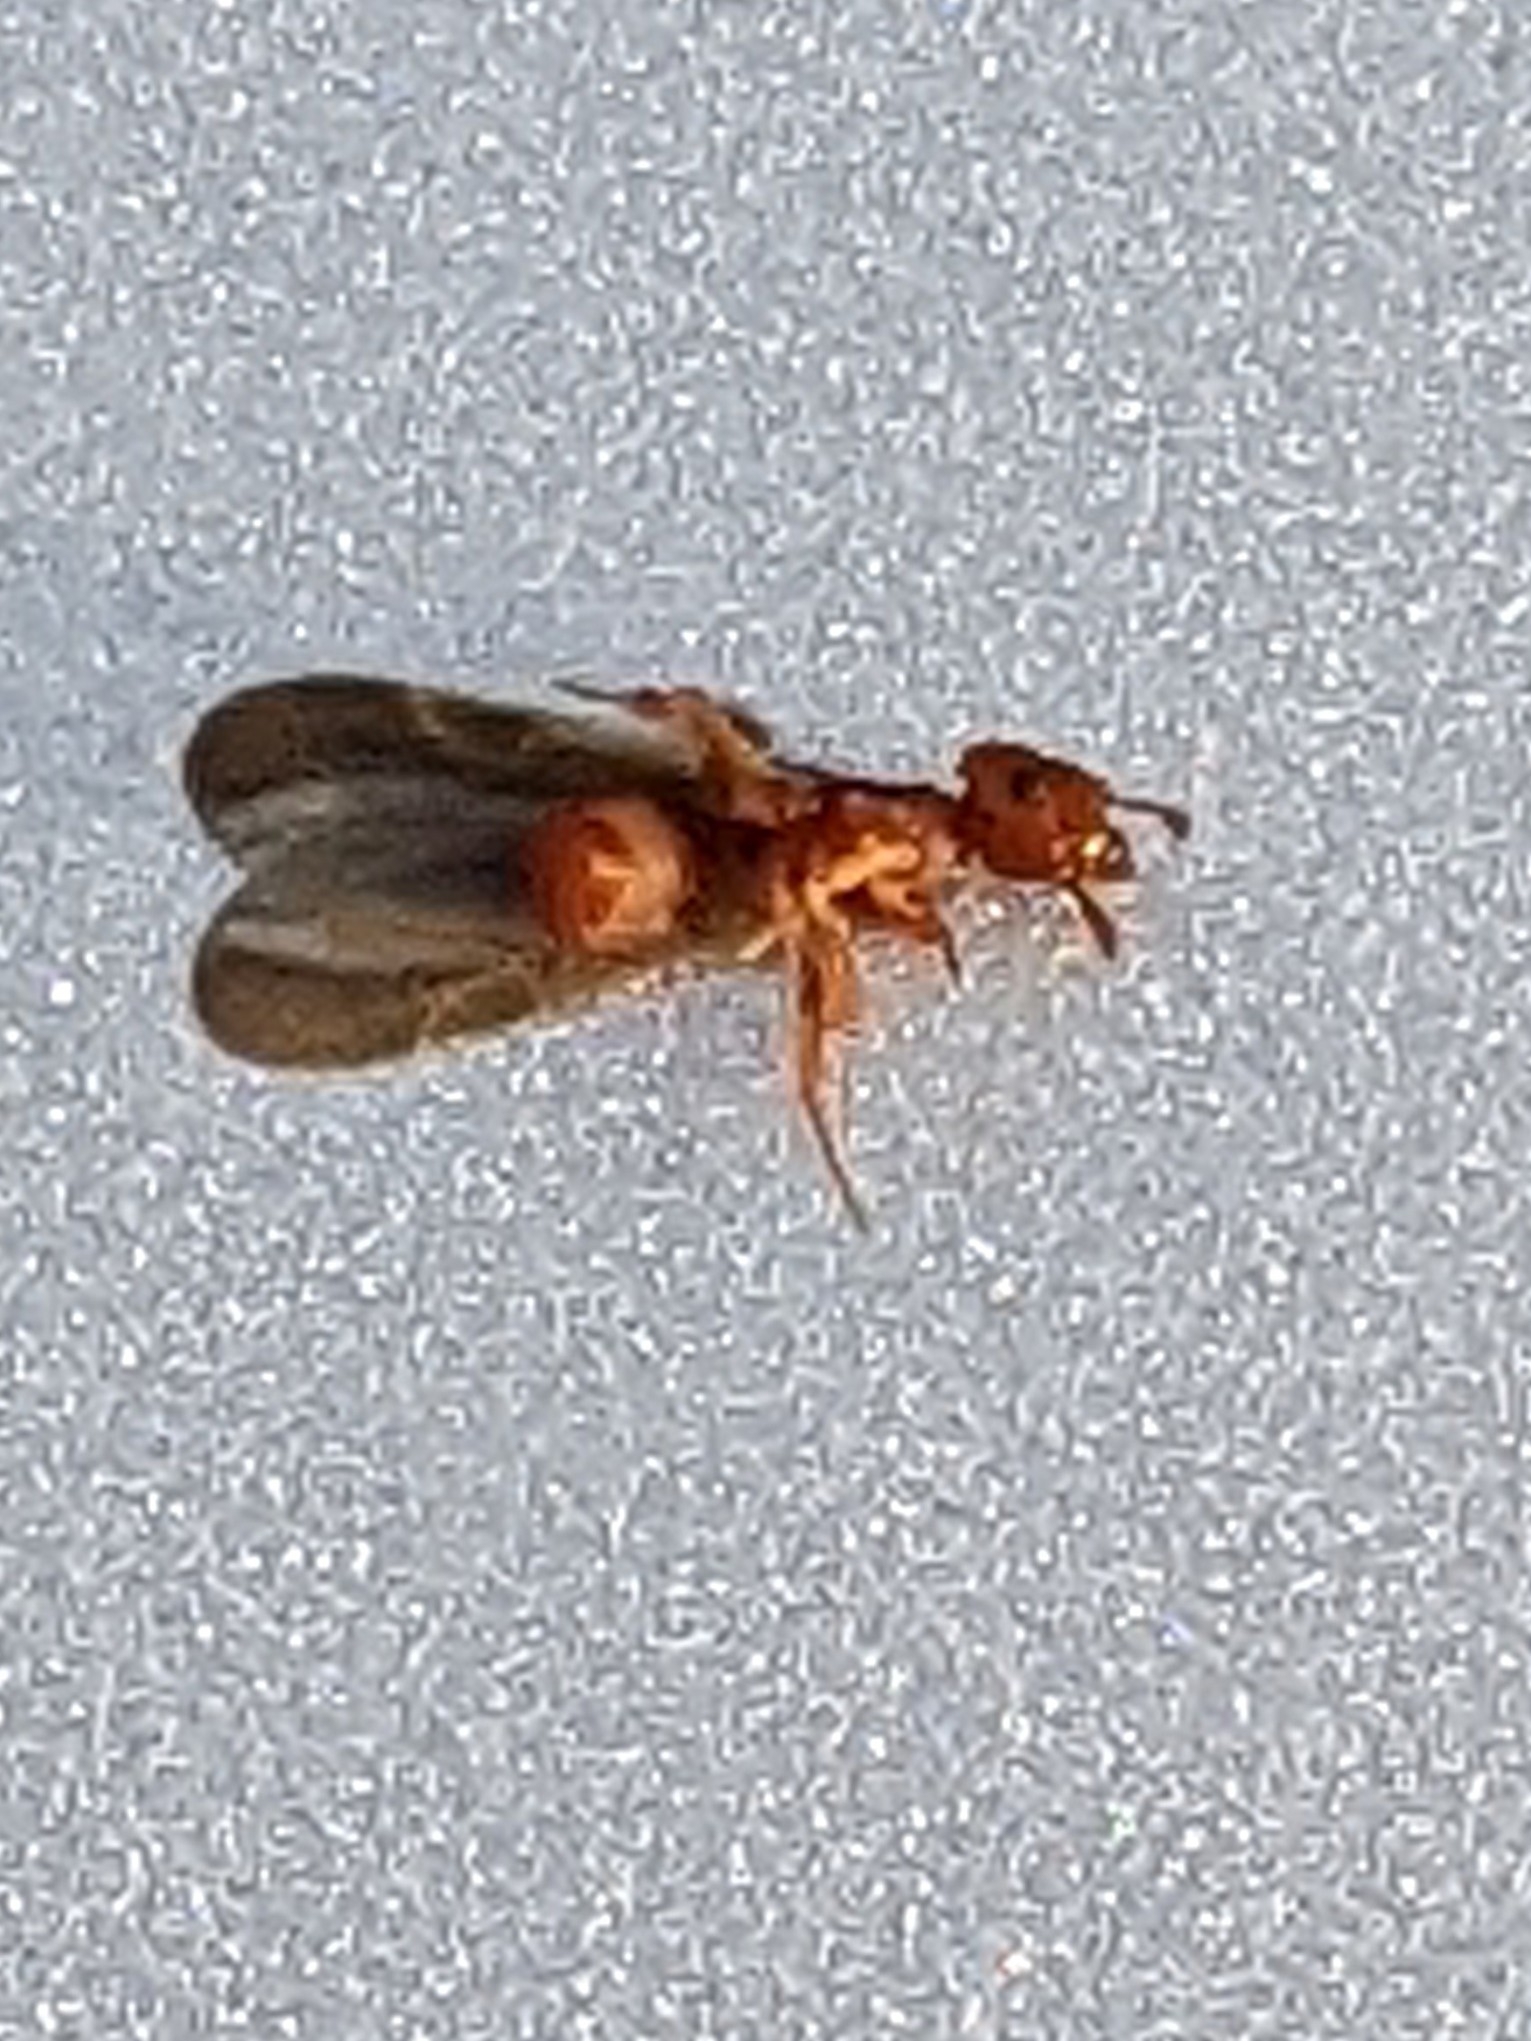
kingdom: Animalia
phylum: Arthropoda
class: Insecta
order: Hymenoptera
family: Formicidae
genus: Cyphomyrmex
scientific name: Cyphomyrmex wheeleri
